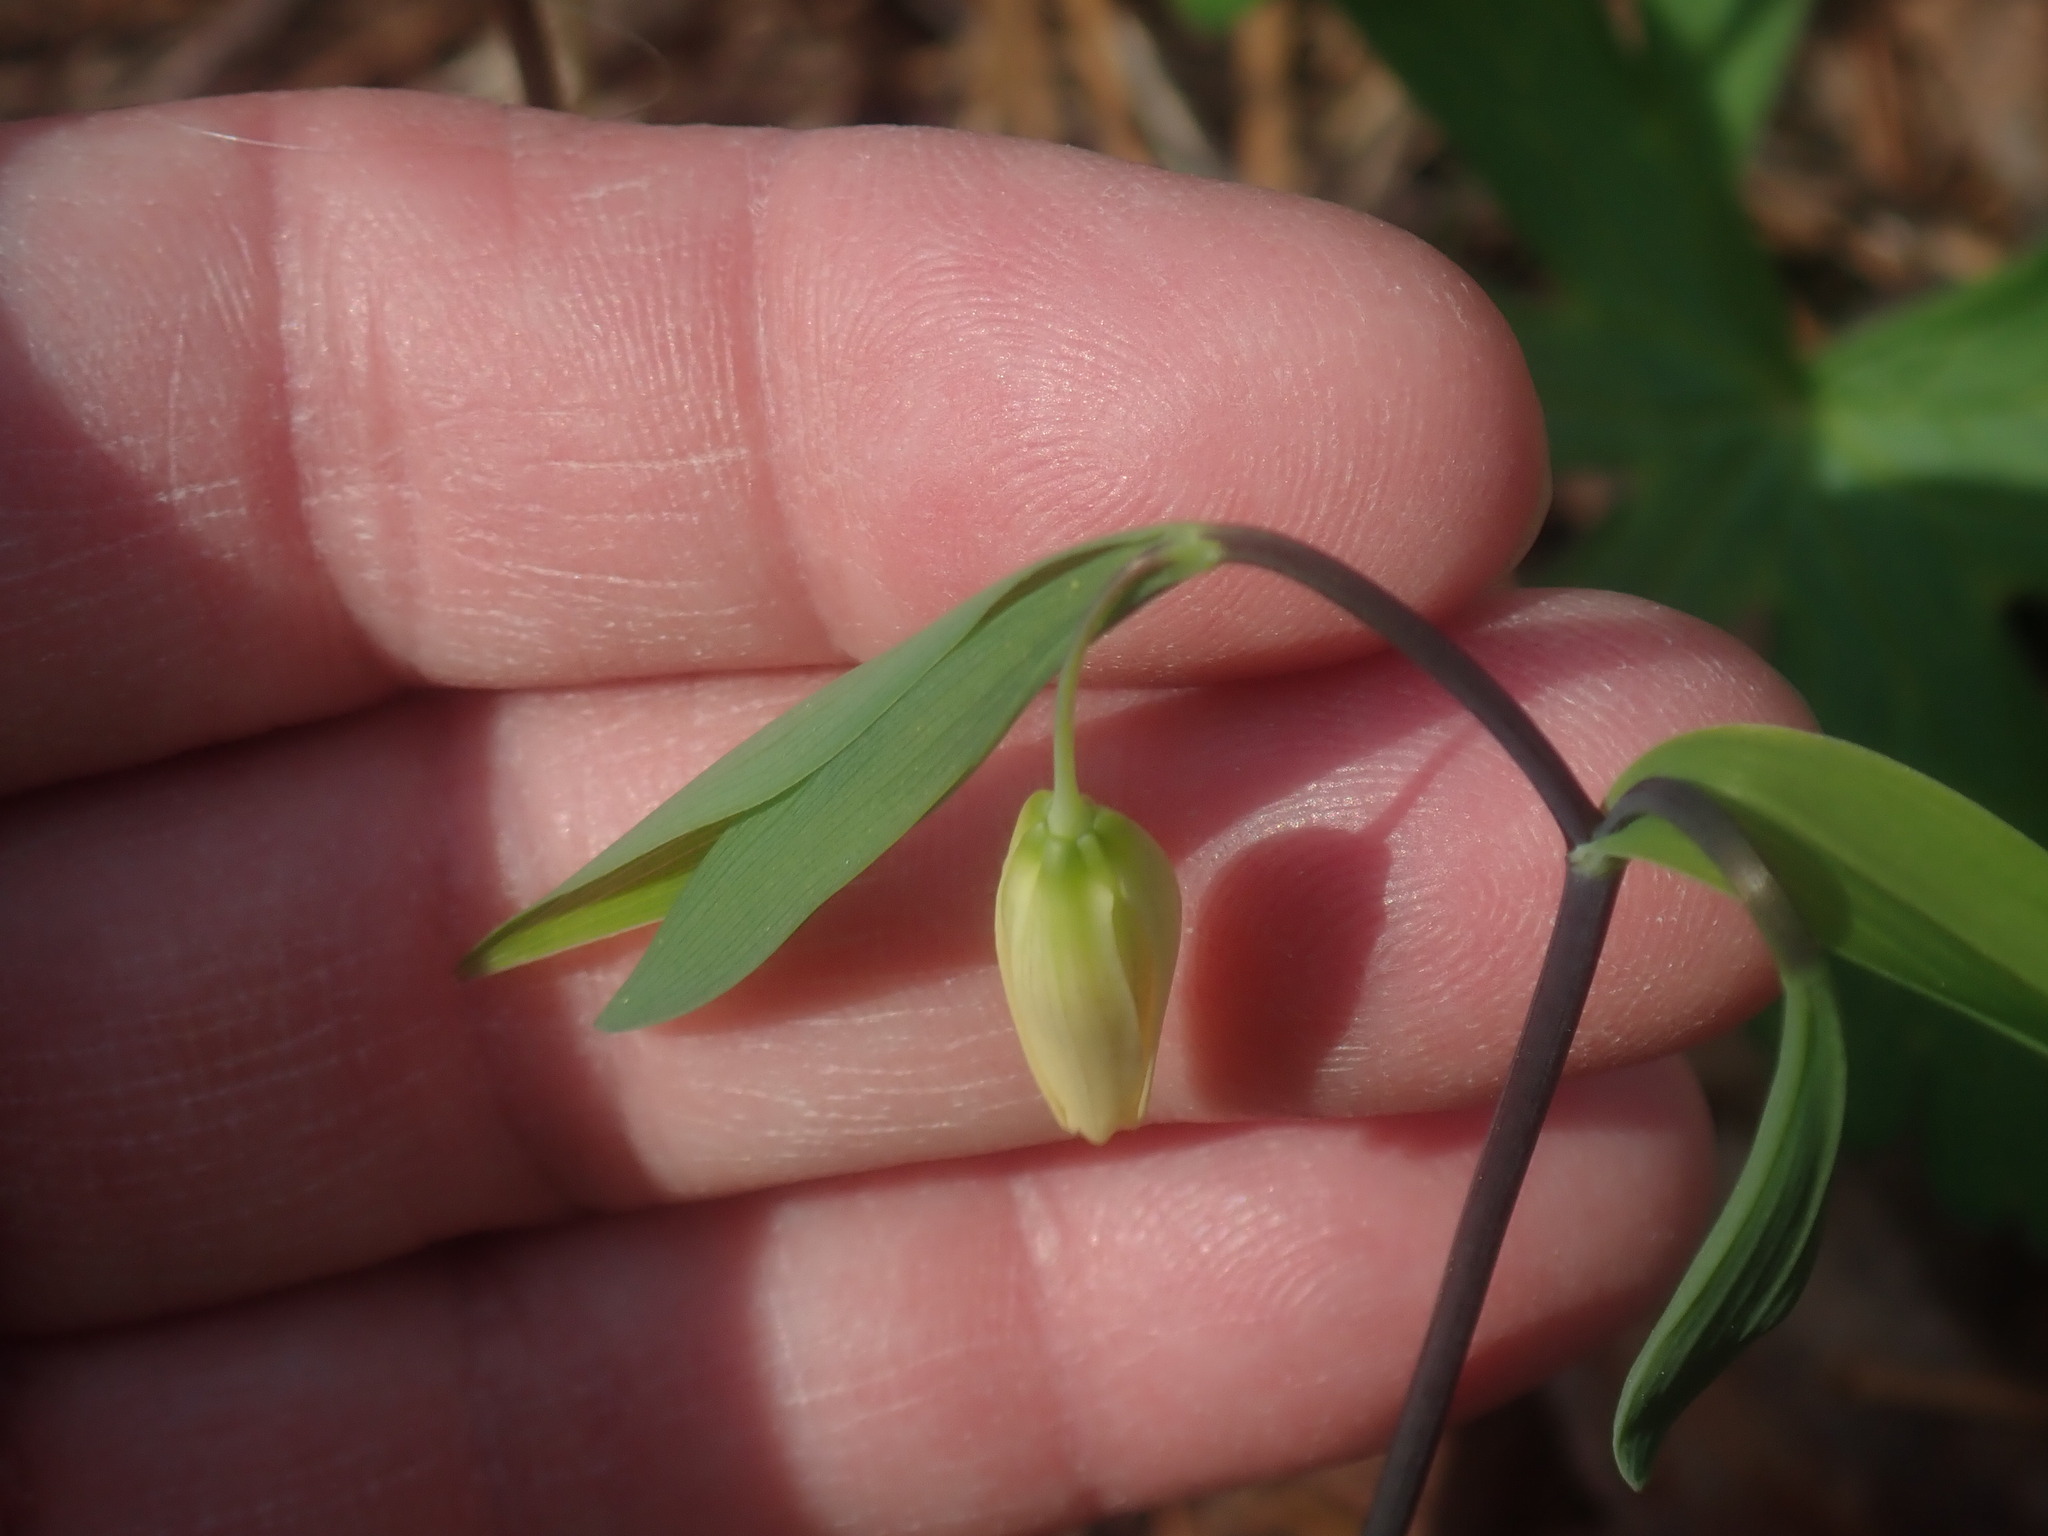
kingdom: Plantae
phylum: Tracheophyta
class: Liliopsida
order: Liliales
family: Colchicaceae
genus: Uvularia
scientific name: Uvularia sessilifolia
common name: Straw-lily
